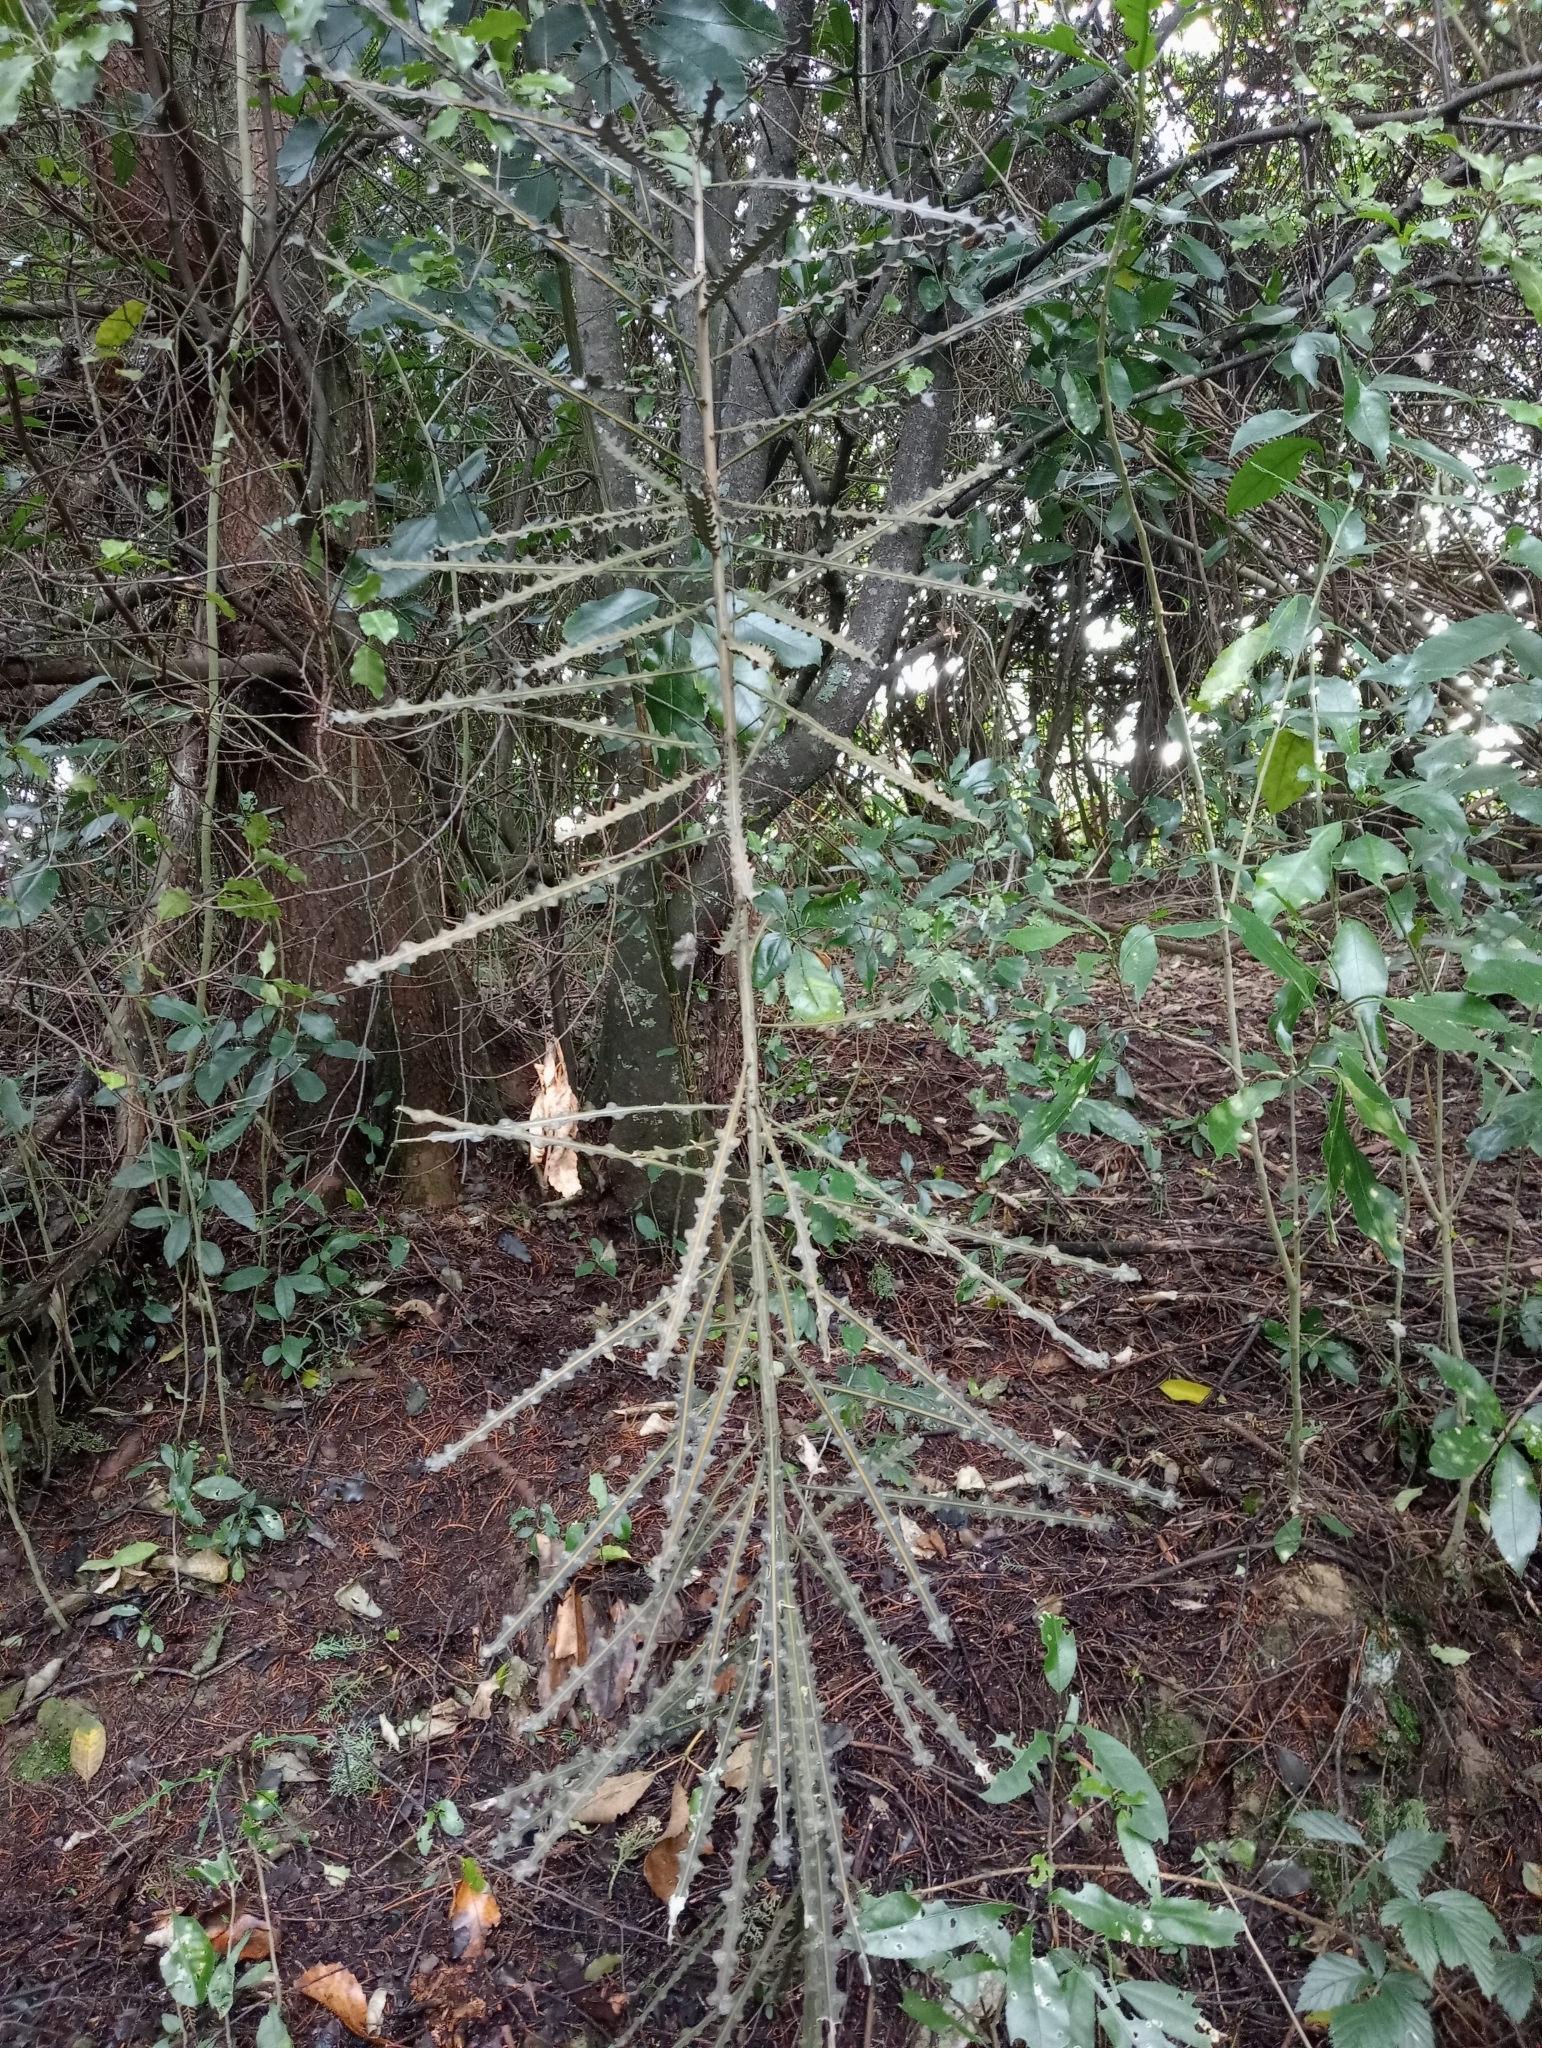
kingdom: Plantae
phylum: Tracheophyta
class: Magnoliopsida
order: Apiales
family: Araliaceae
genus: Pseudopanax
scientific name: Pseudopanax ferox
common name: Fierce lancewood
